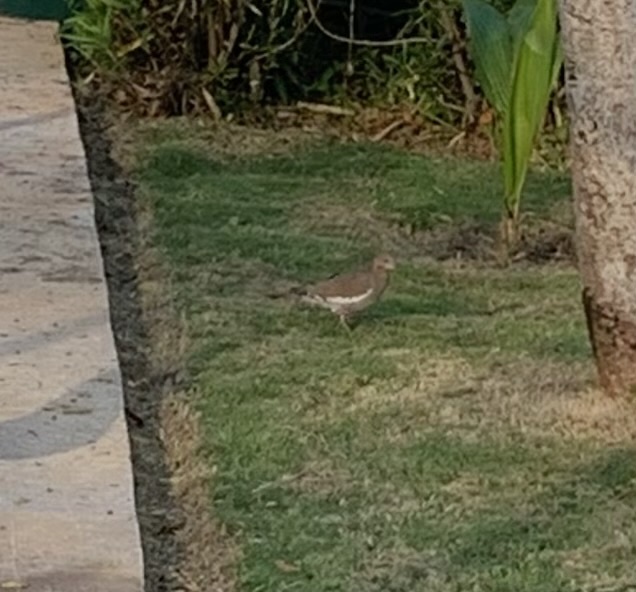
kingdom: Animalia
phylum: Chordata
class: Aves
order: Columbiformes
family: Columbidae
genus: Zenaida
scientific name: Zenaida asiatica
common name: White-winged dove
